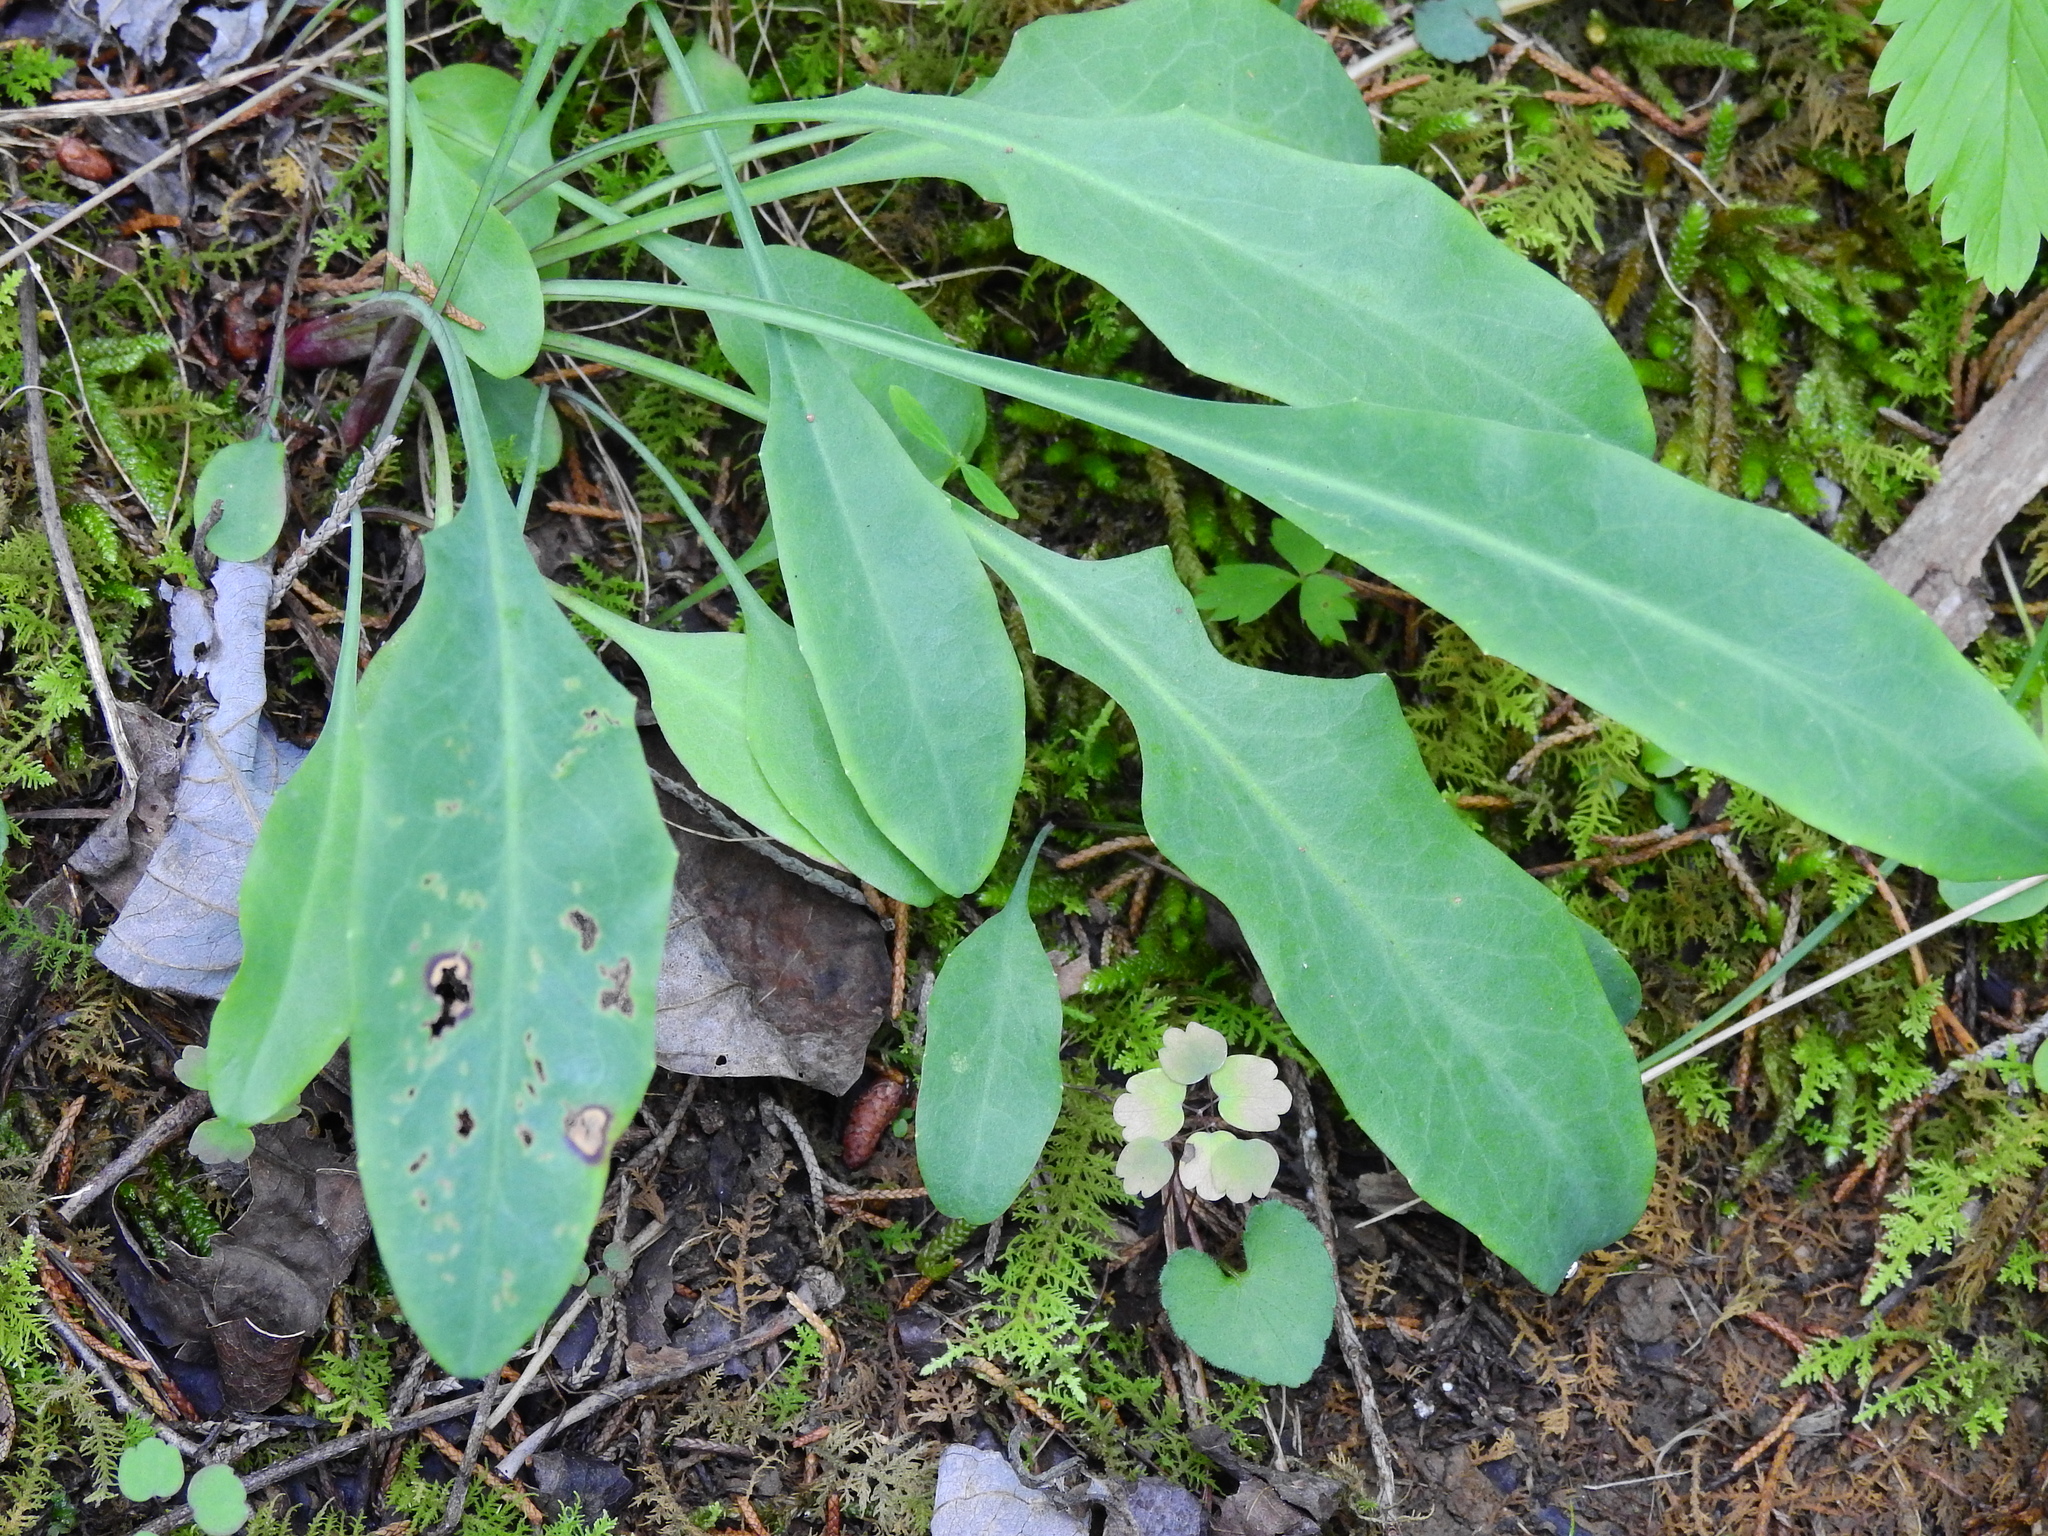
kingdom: Plantae
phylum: Tracheophyta
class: Magnoliopsida
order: Asterales
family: Asteraceae
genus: Krigia
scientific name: Krigia biflora
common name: Orange dwarf-dandelion
